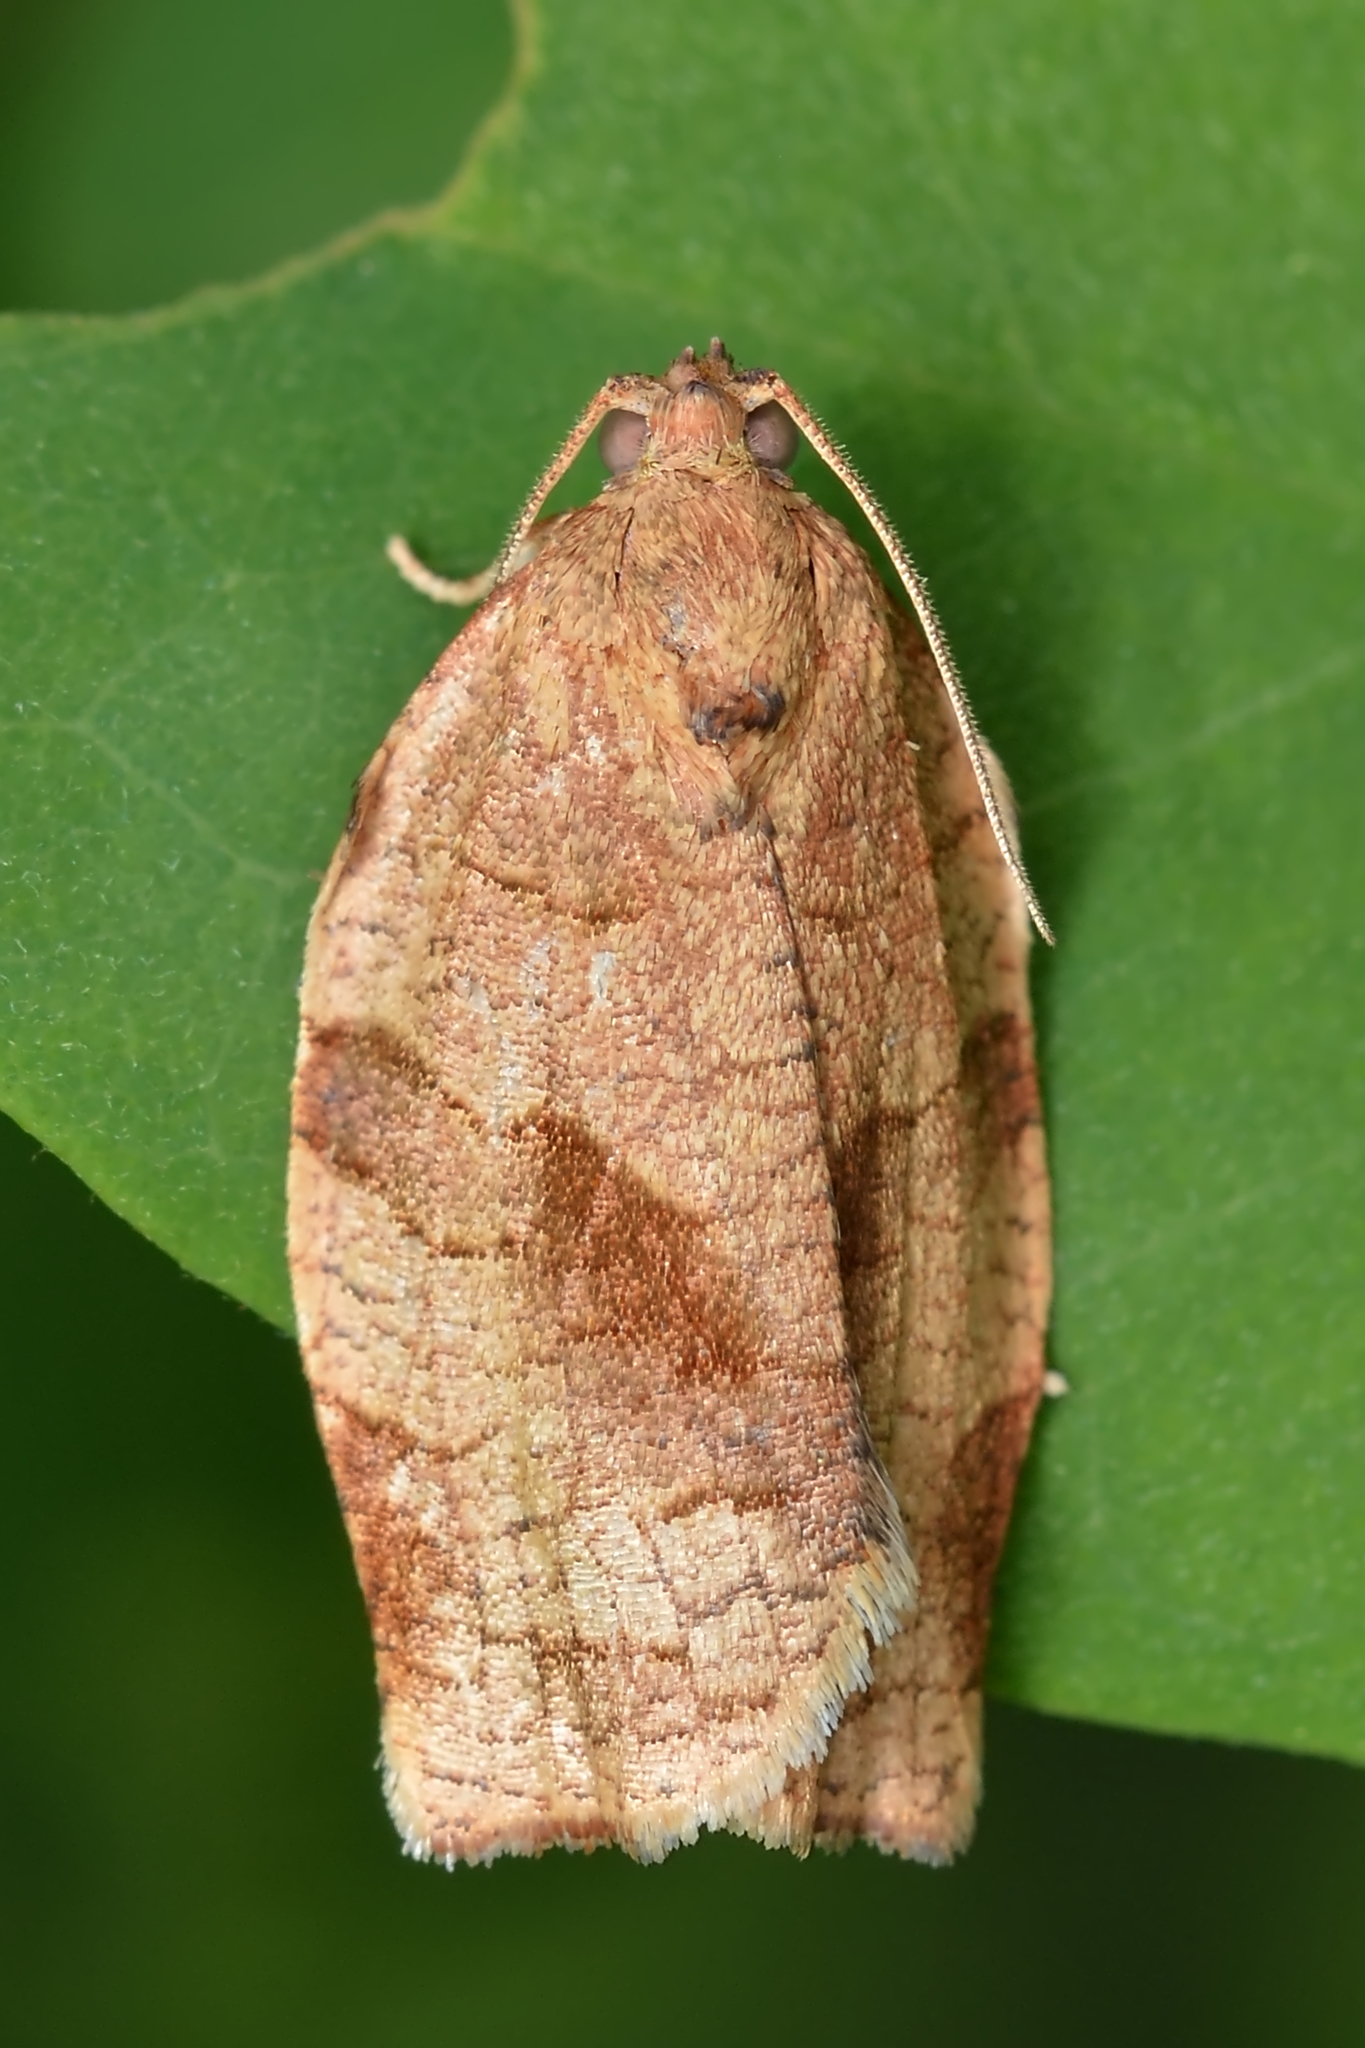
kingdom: Animalia
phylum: Arthropoda
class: Insecta
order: Lepidoptera
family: Tortricidae
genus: Choristoneura
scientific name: Choristoneura rosaceana
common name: Oblique-banded leafroller moth
